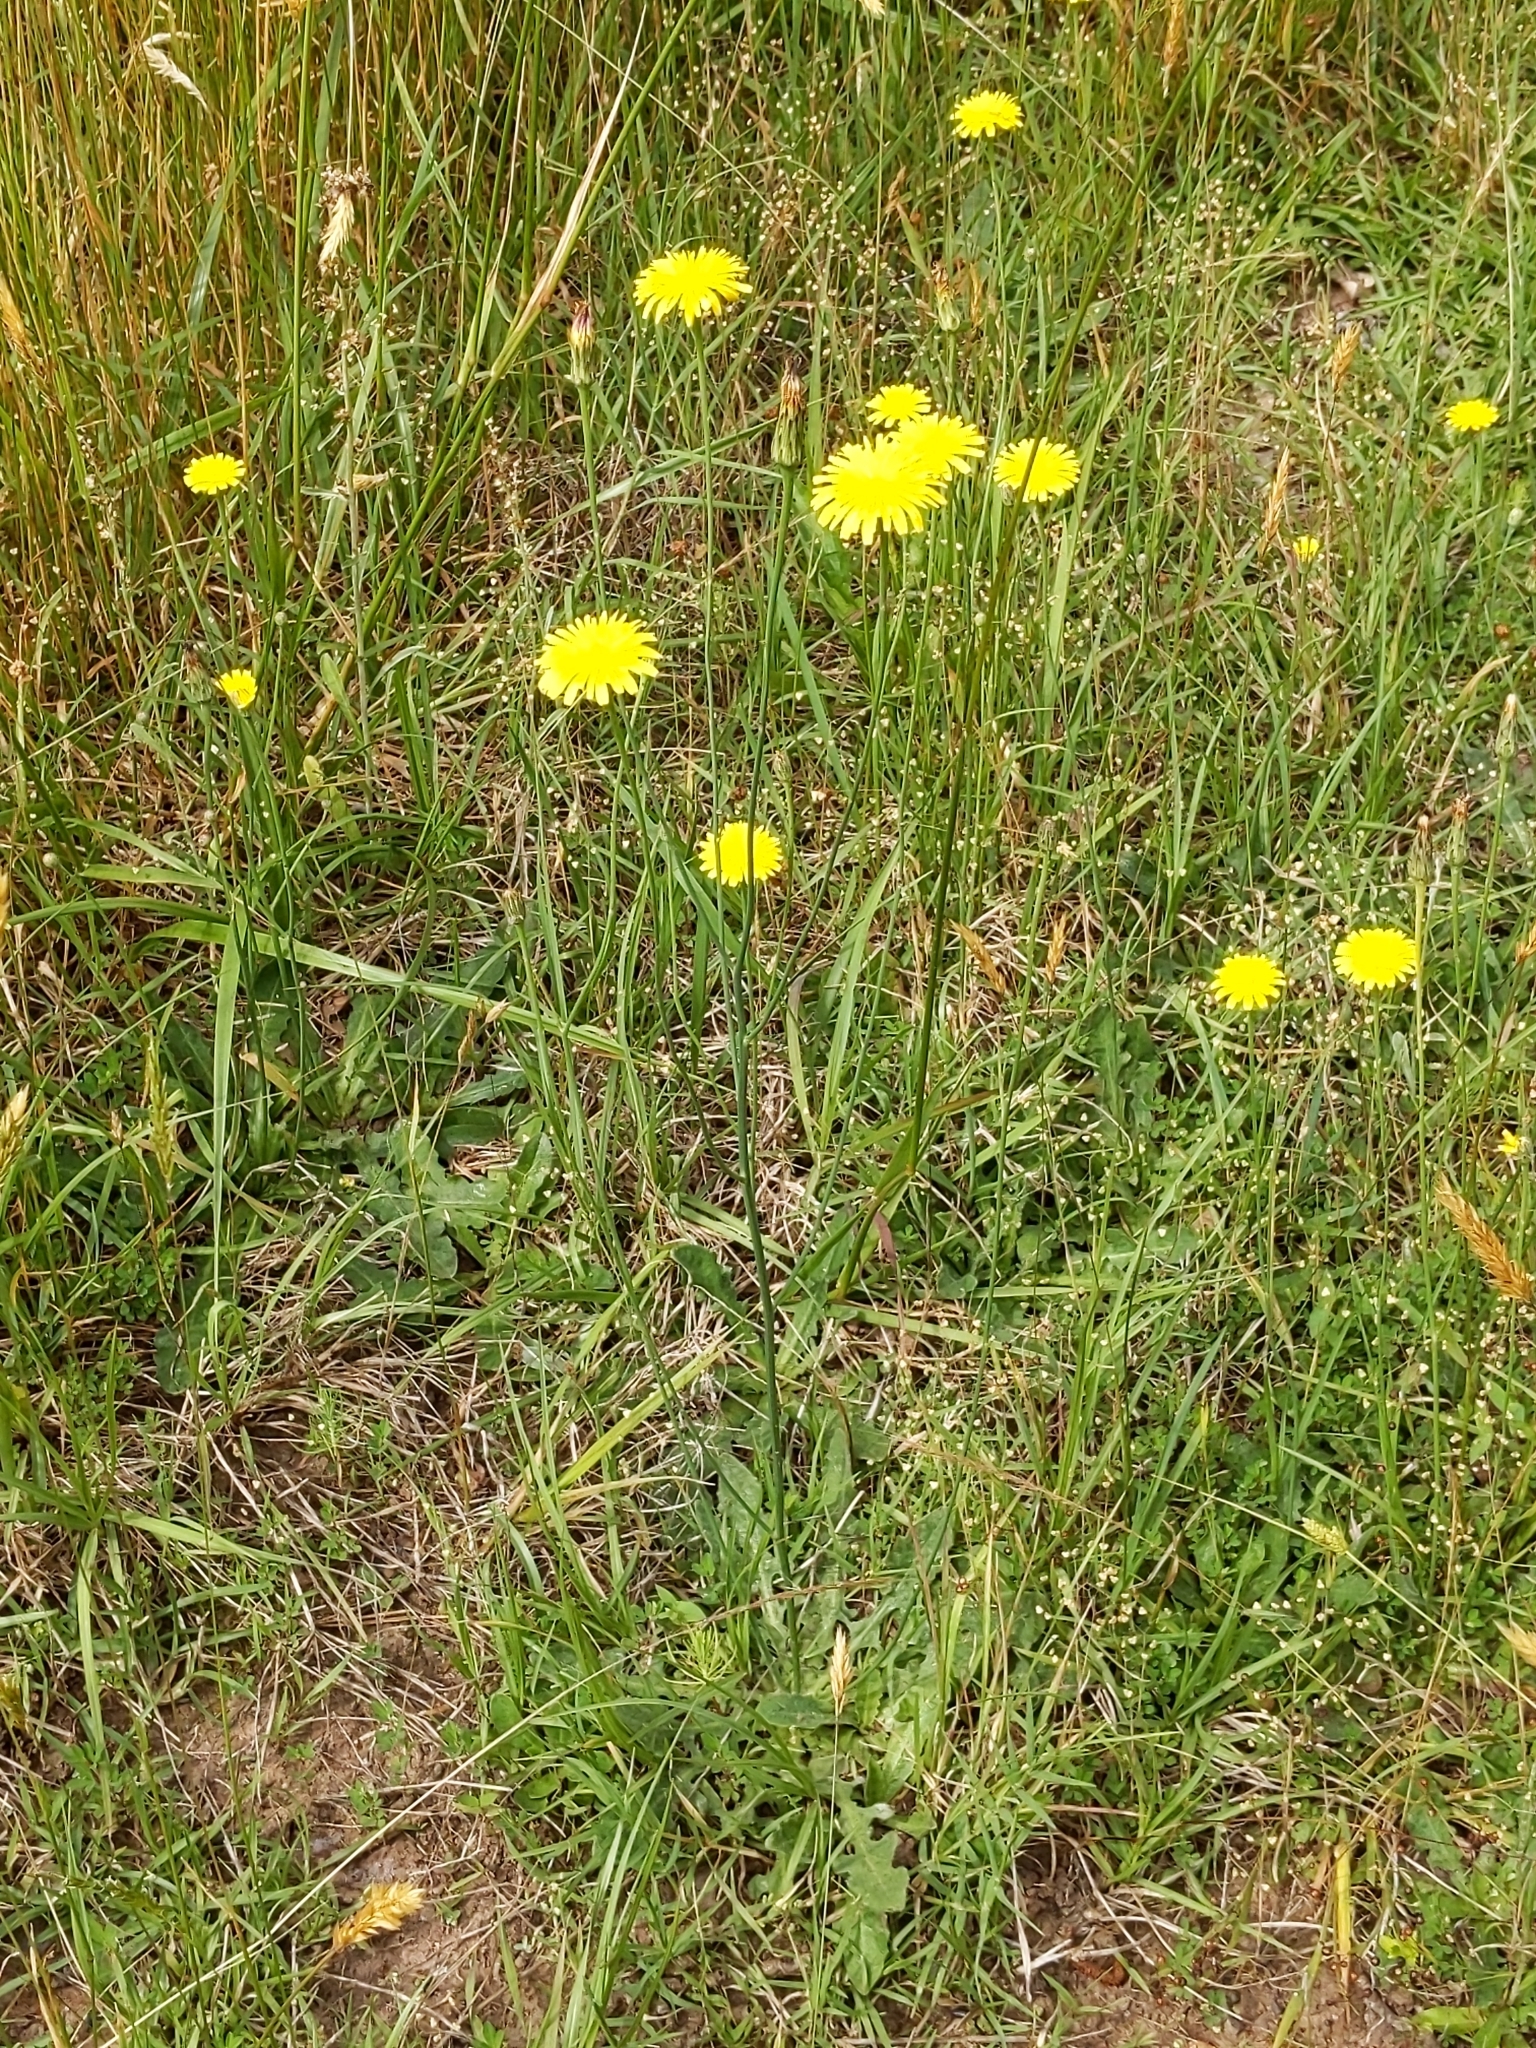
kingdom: Plantae
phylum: Tracheophyta
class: Magnoliopsida
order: Asterales
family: Asteraceae
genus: Hypochaeris
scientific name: Hypochaeris radicata
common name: Flatweed
